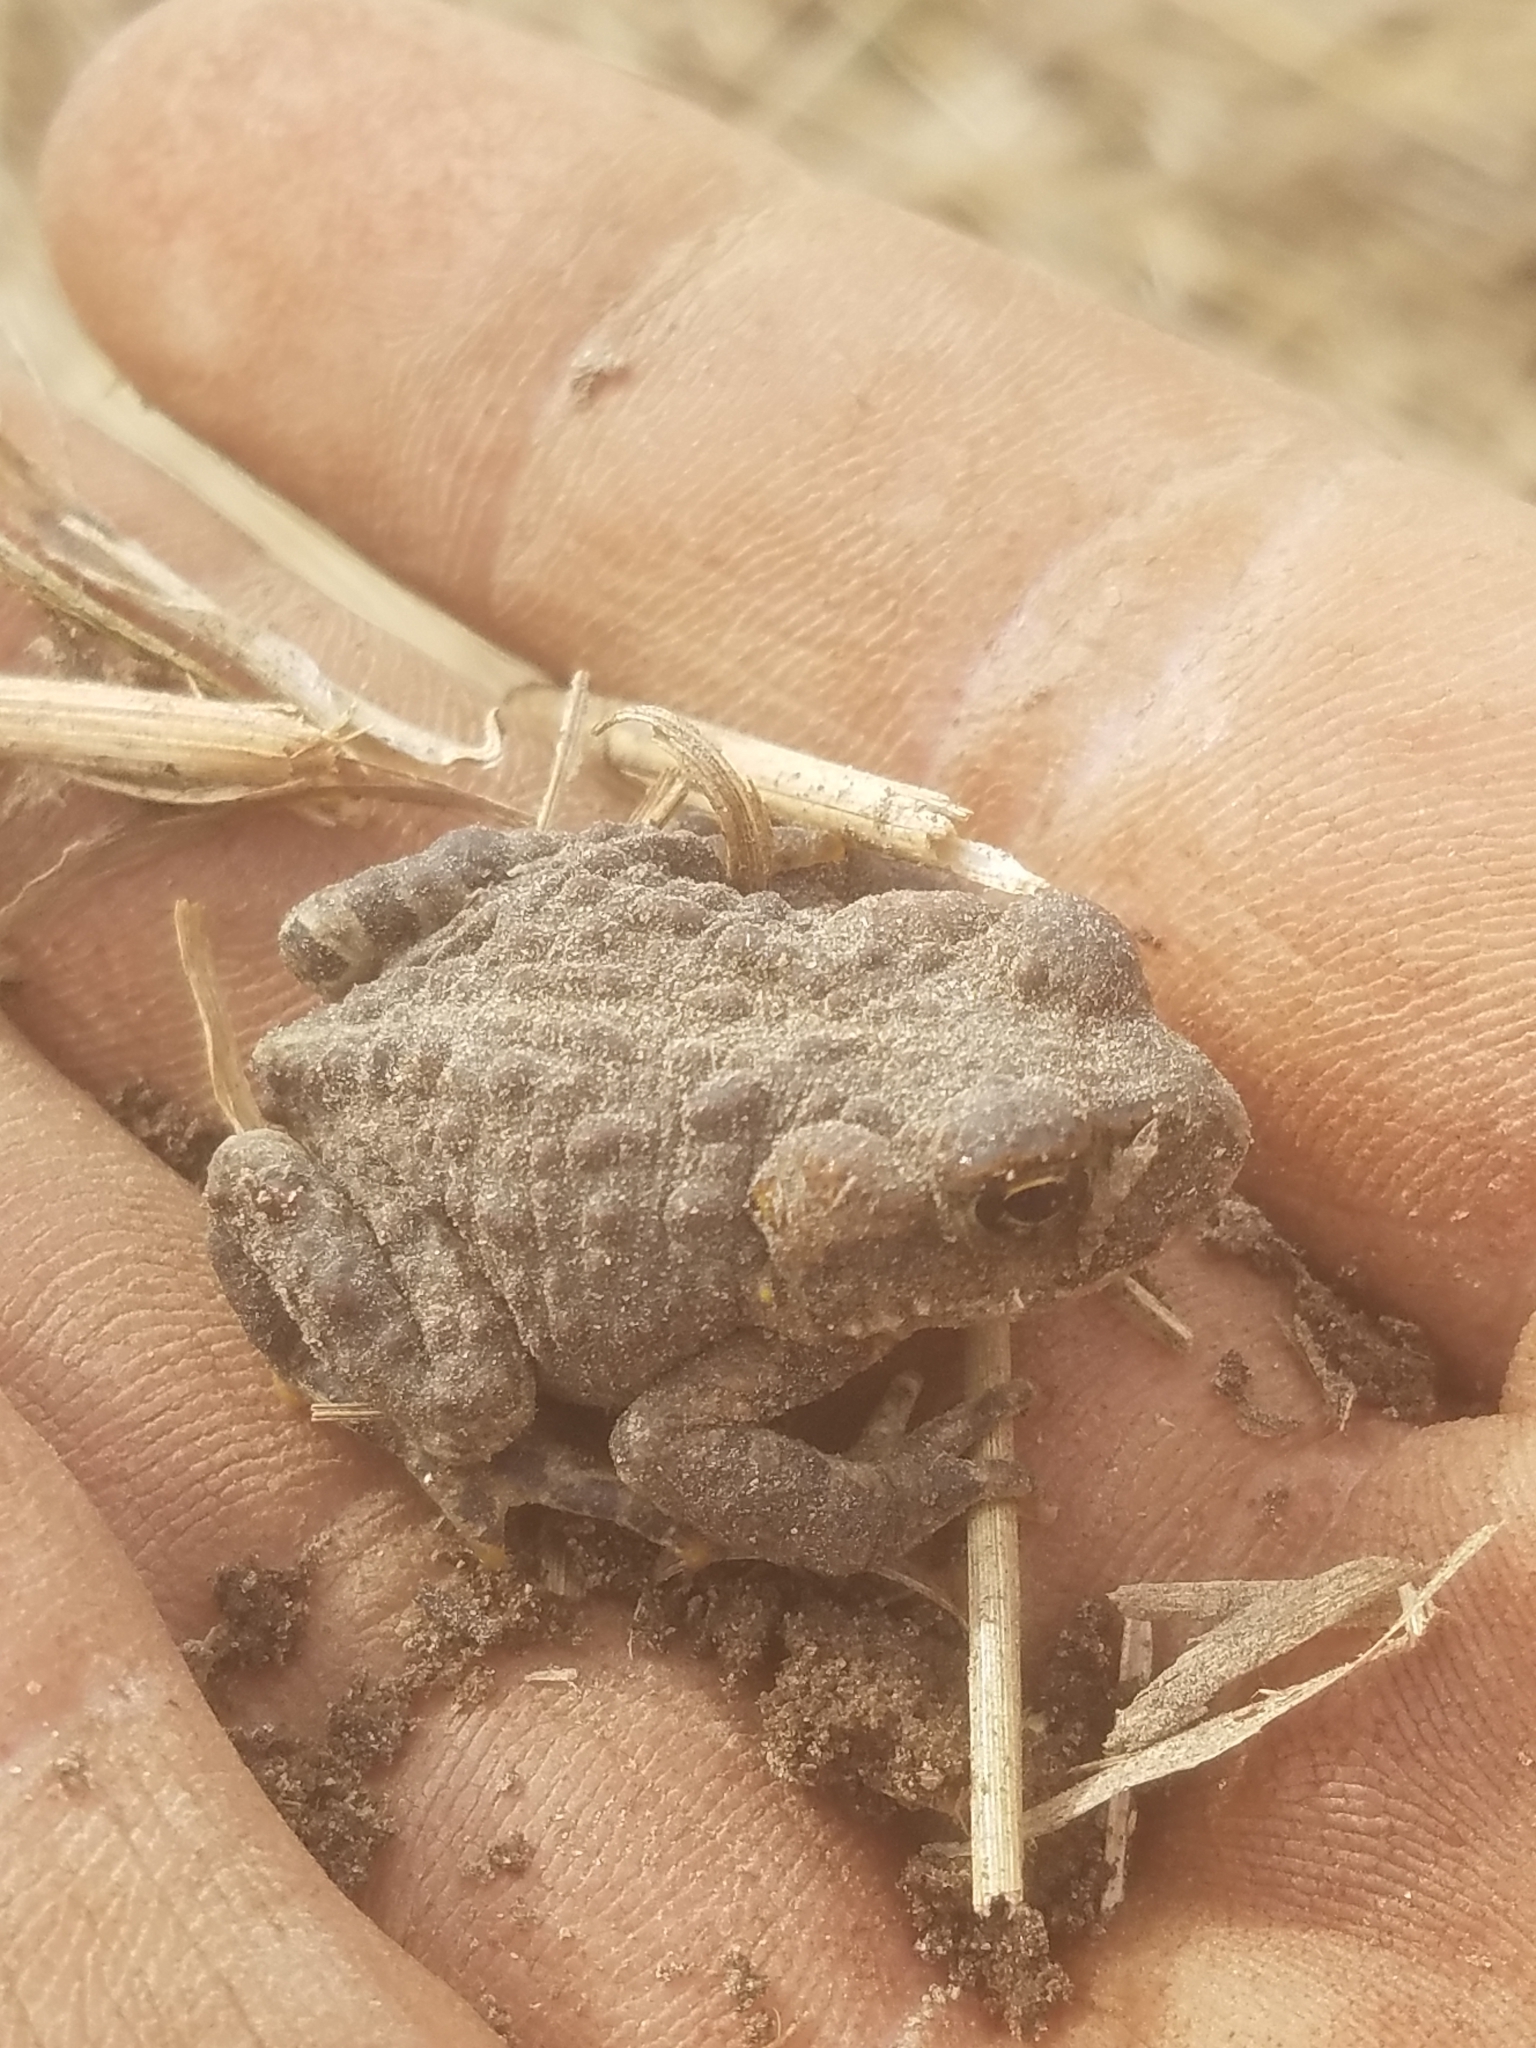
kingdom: Animalia
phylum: Chordata
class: Amphibia
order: Anura
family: Bufonidae
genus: Anaxyrus
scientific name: Anaxyrus boreas
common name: Western toad
